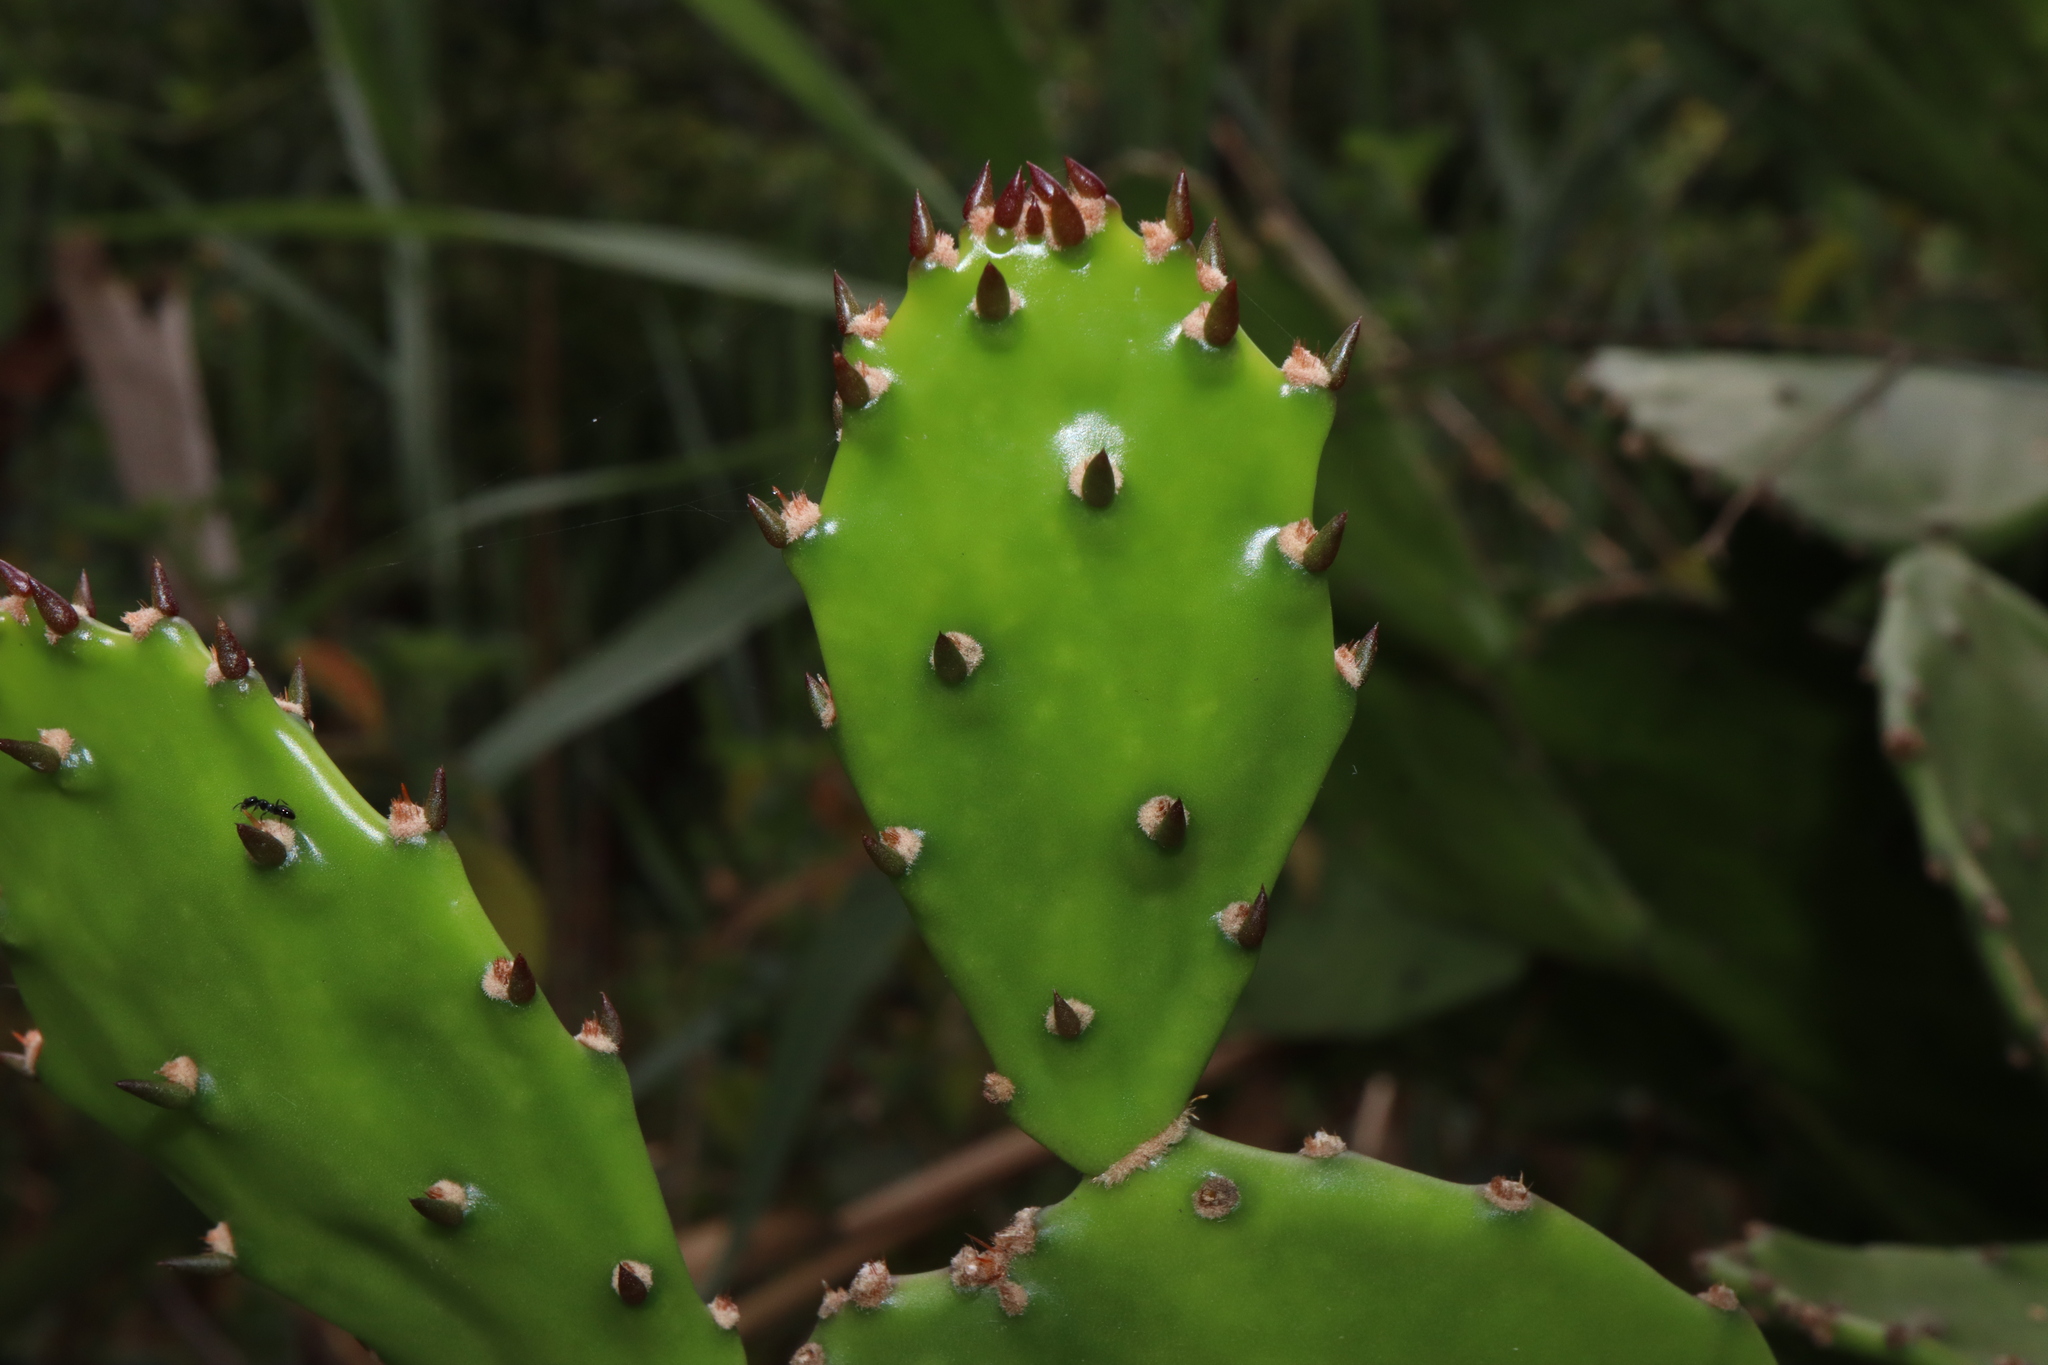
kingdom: Plantae
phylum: Tracheophyta
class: Magnoliopsida
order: Caryophyllales
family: Cactaceae
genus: Opuntia
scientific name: Opuntia monacantha
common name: Common pricklypear
